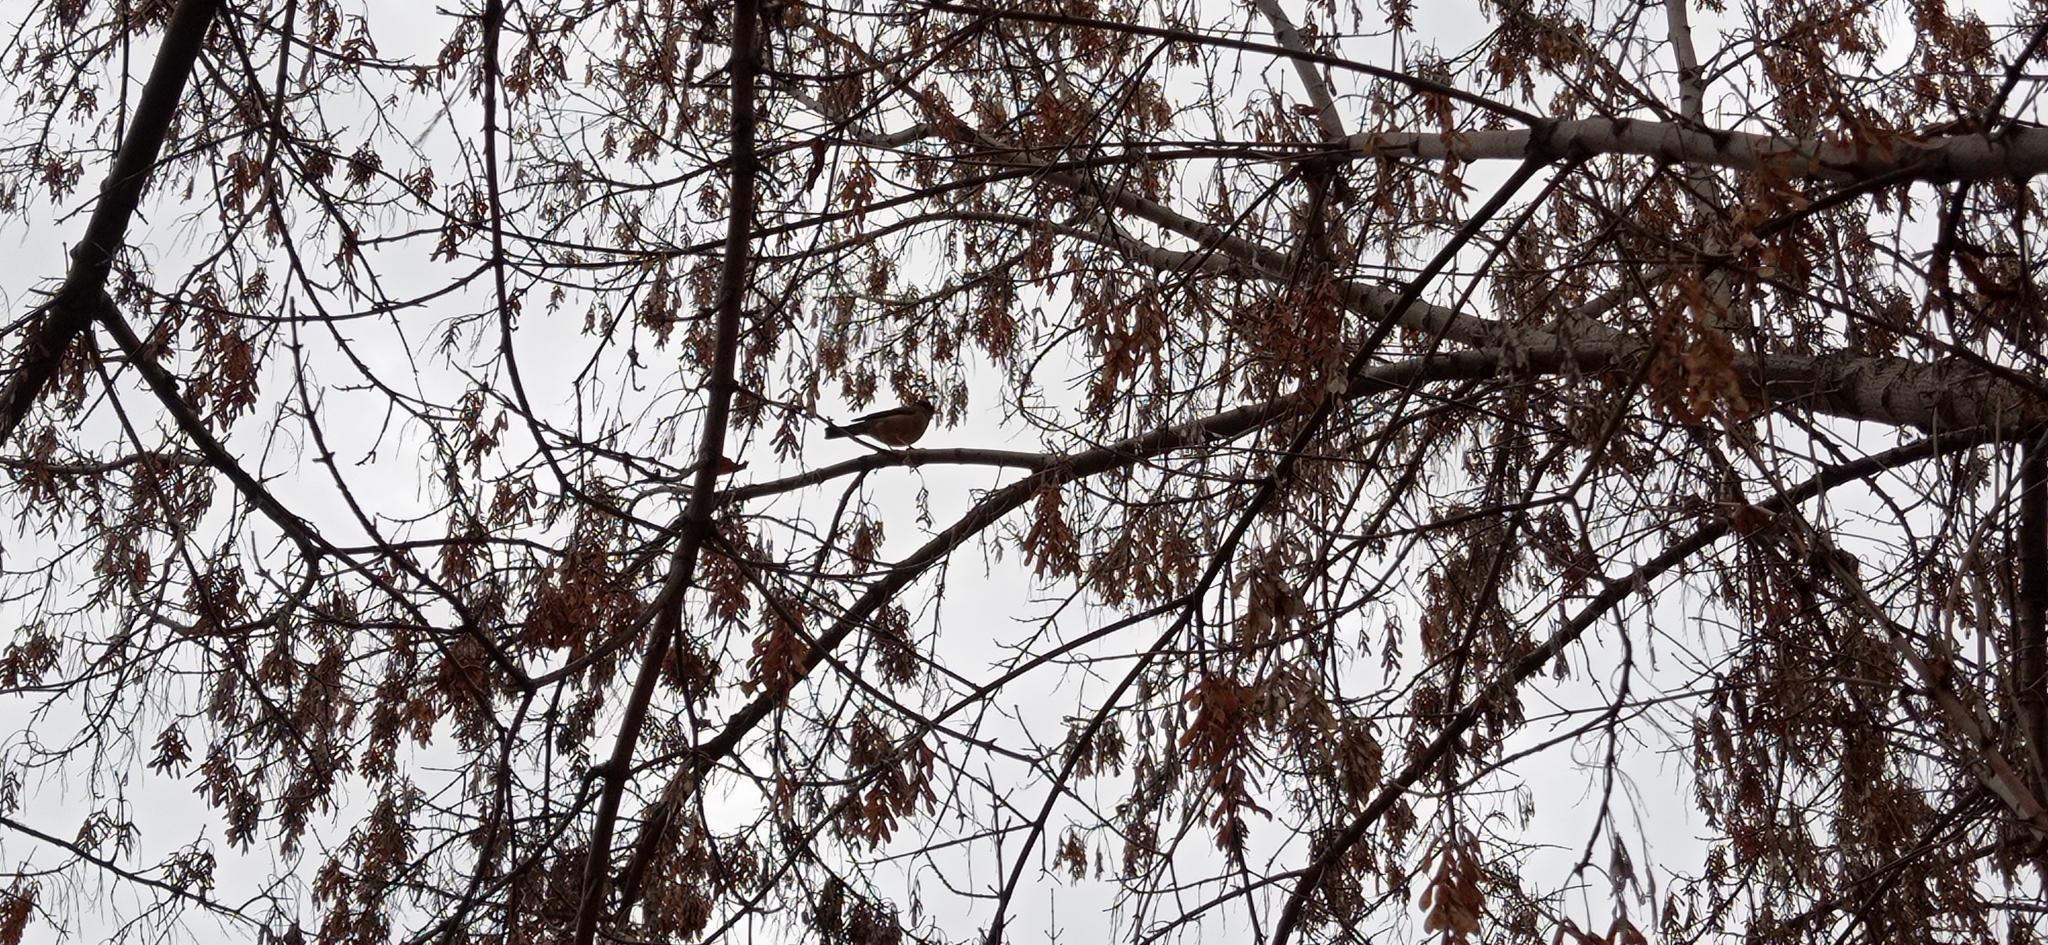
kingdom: Animalia
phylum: Chordata
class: Aves
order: Passeriformes
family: Turdidae
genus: Turdus
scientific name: Turdus falcklandii
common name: Austral thrush
